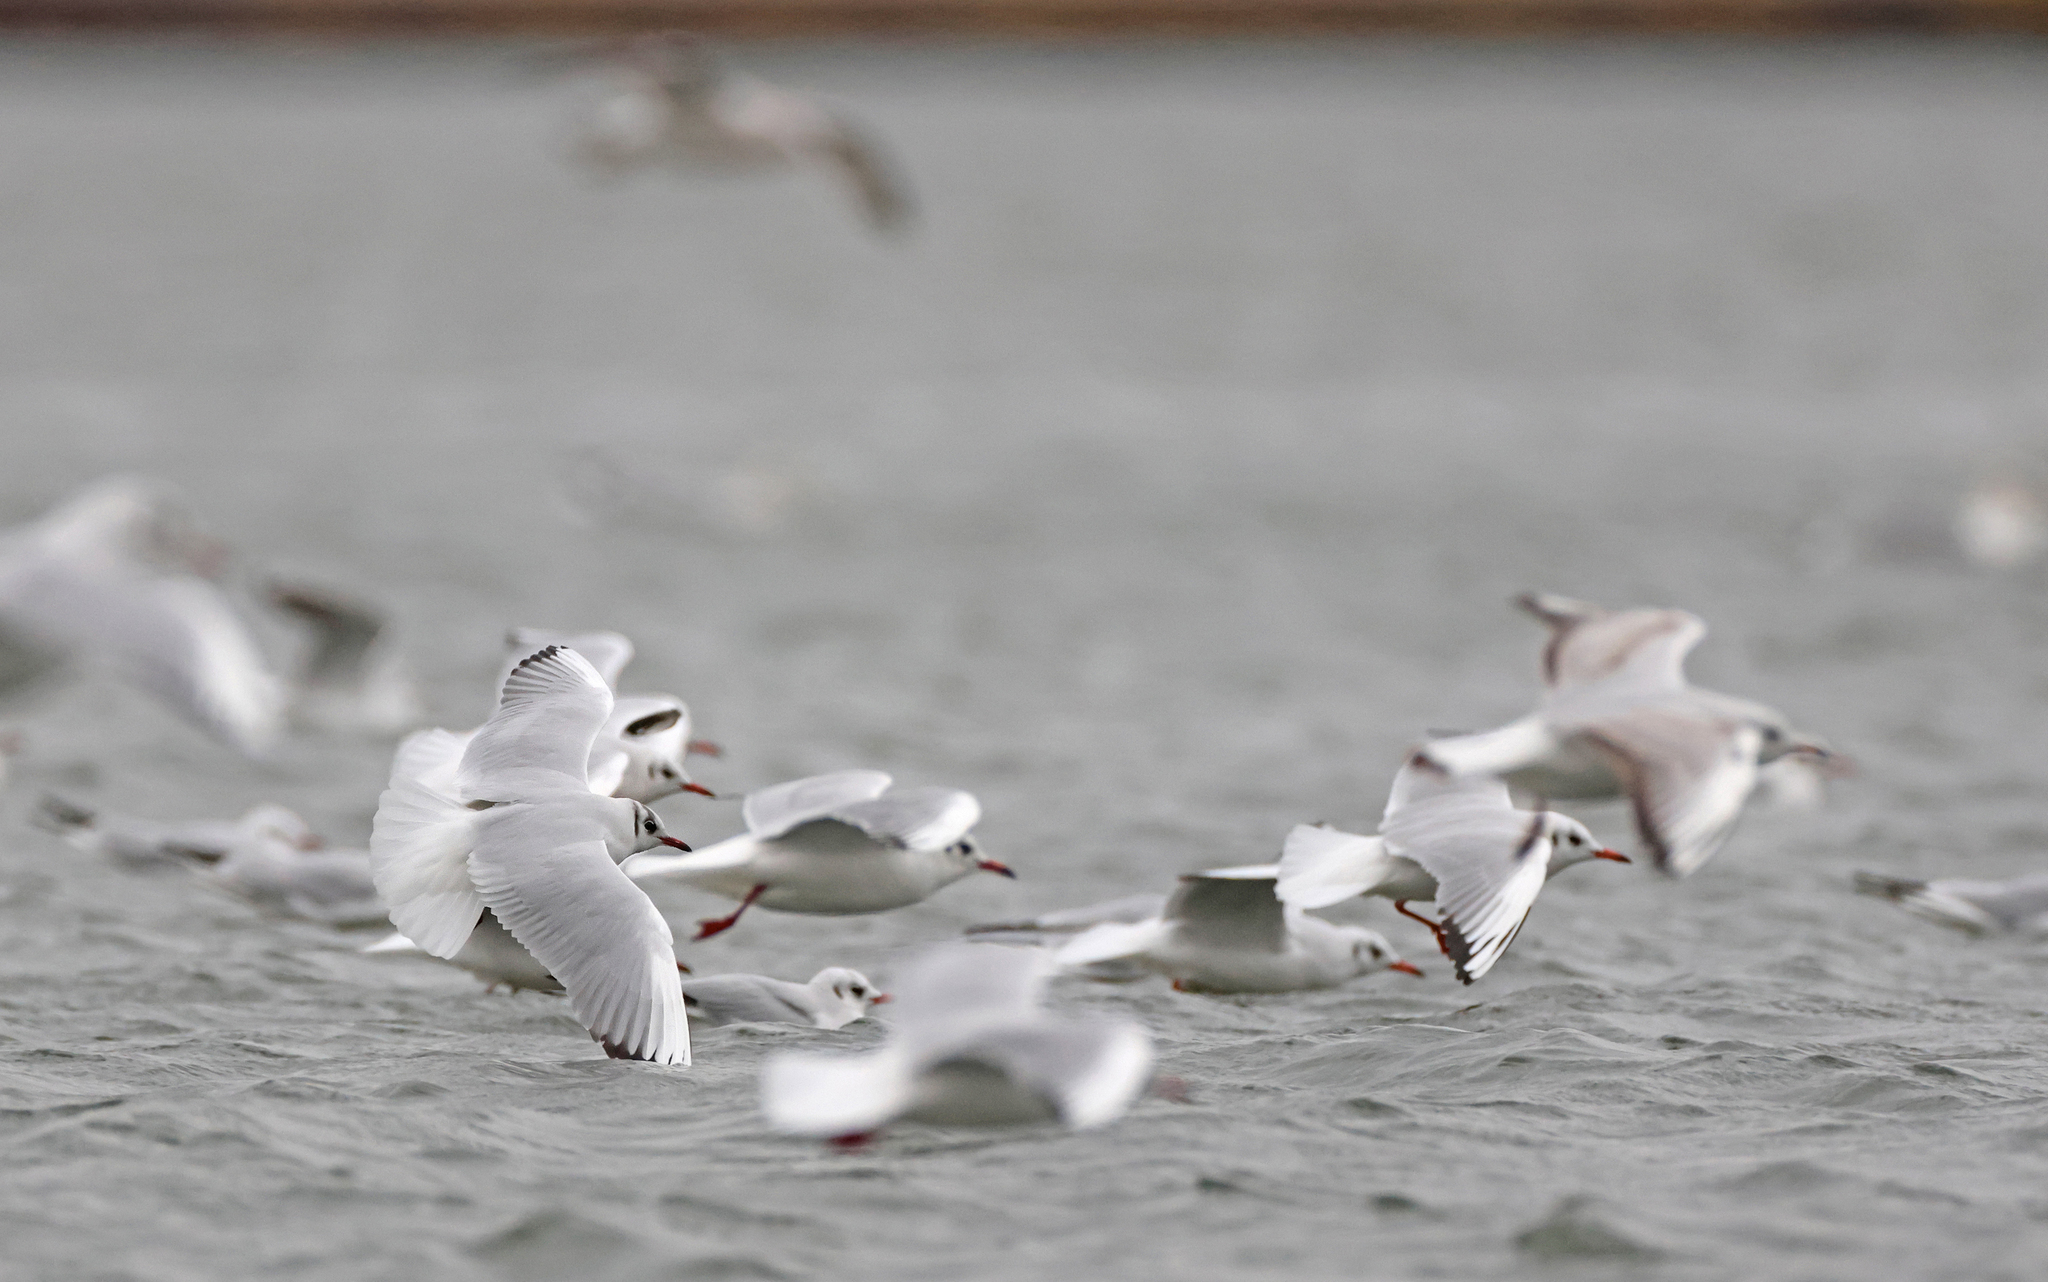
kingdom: Animalia
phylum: Chordata
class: Aves
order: Charadriiformes
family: Laridae
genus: Chroicocephalus
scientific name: Chroicocephalus ridibundus
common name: Black-headed gull
